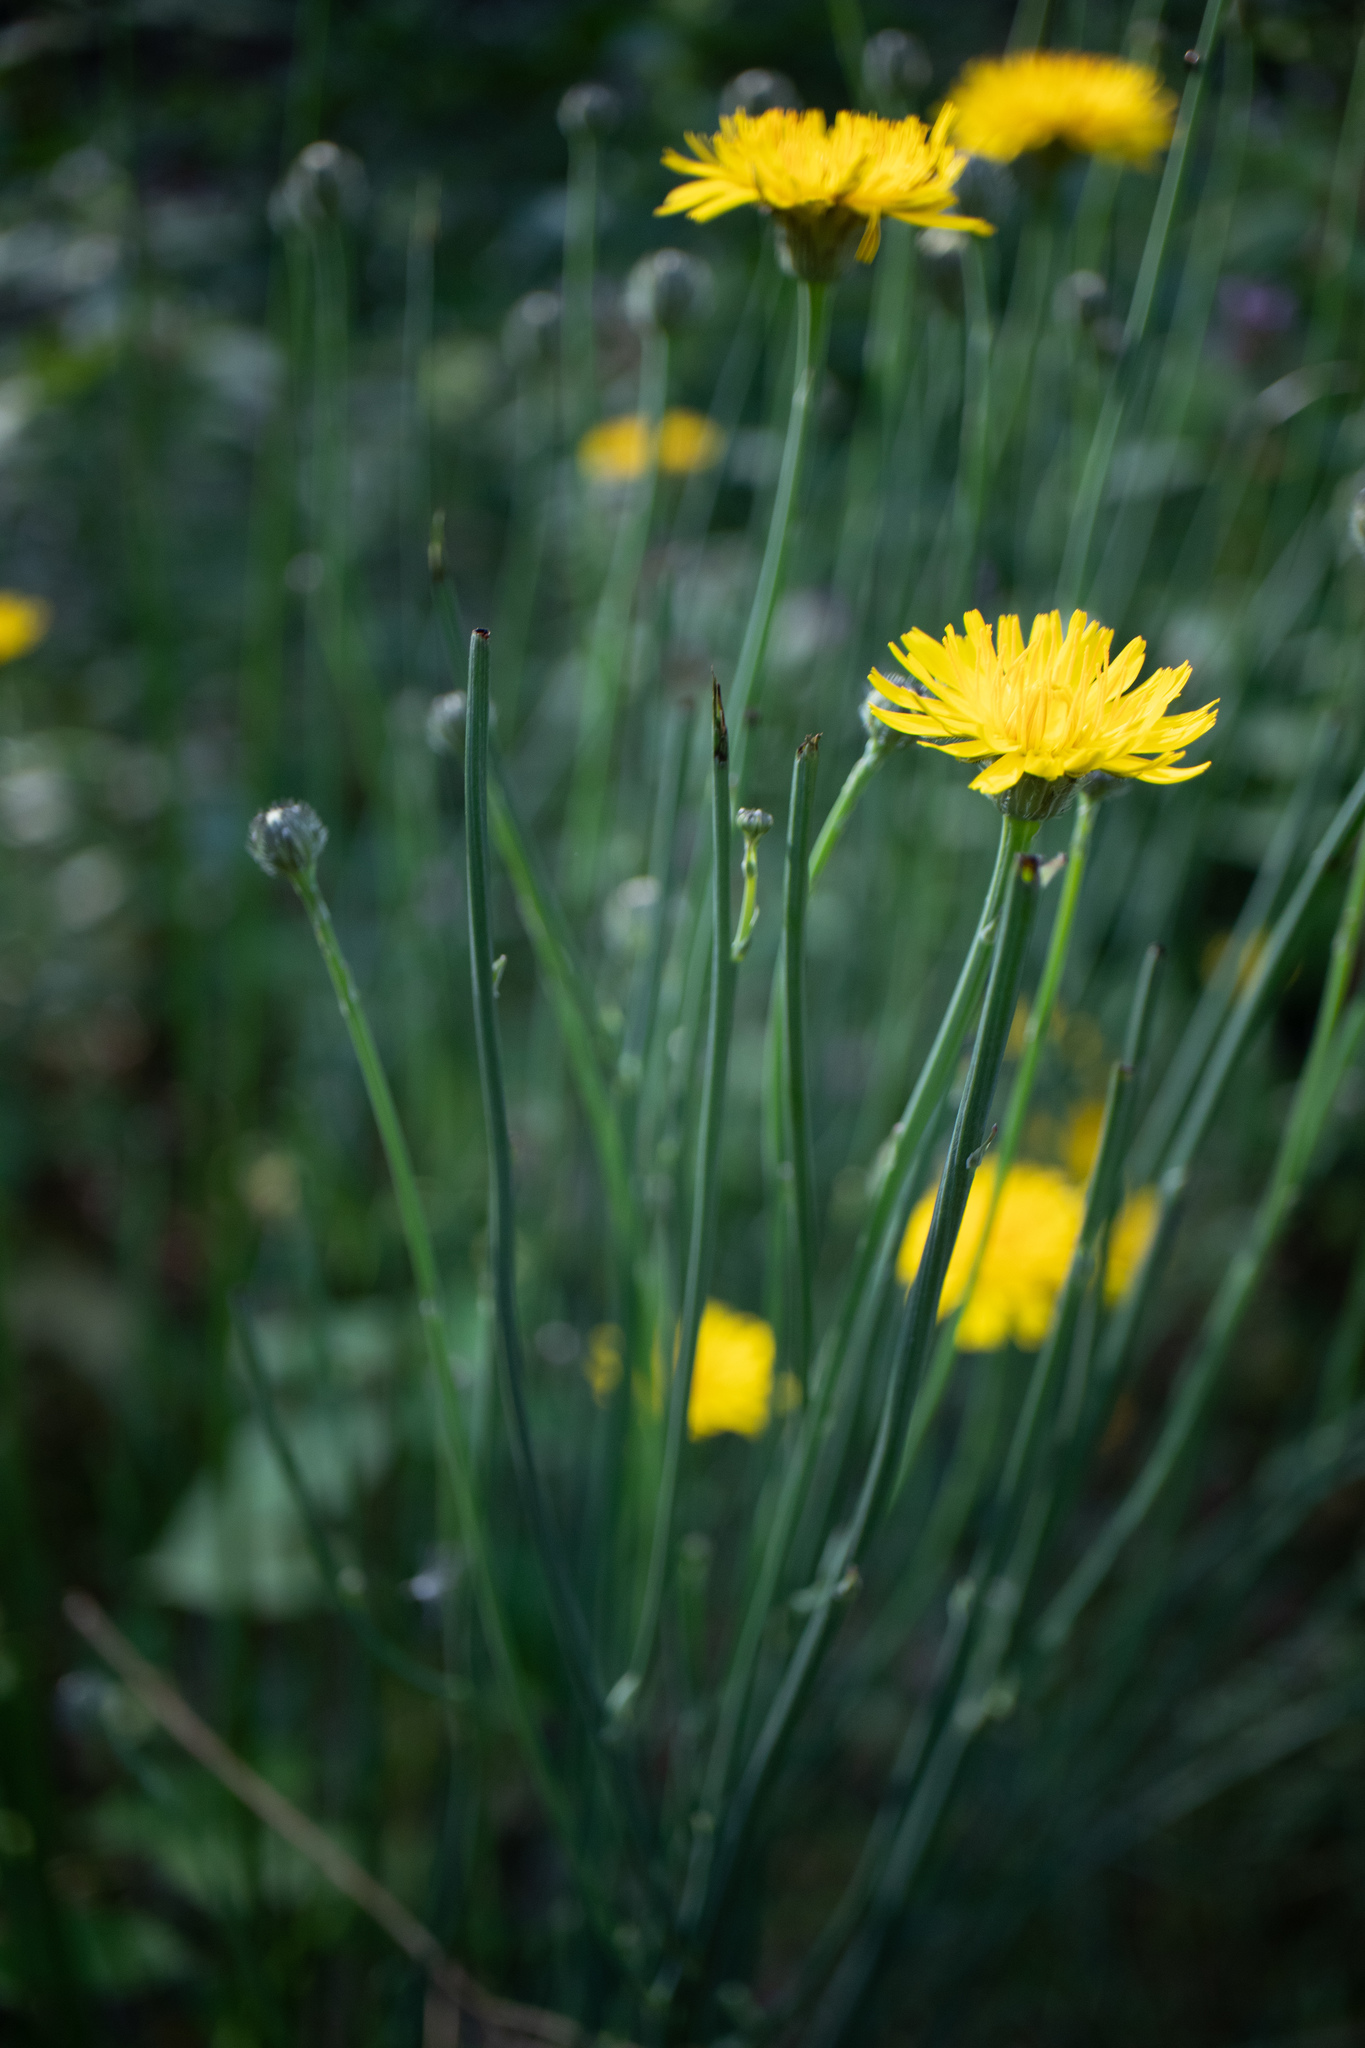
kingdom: Plantae
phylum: Tracheophyta
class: Magnoliopsida
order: Asterales
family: Asteraceae
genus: Scorzoneroides
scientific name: Scorzoneroides autumnalis
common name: Autumn hawkbit
